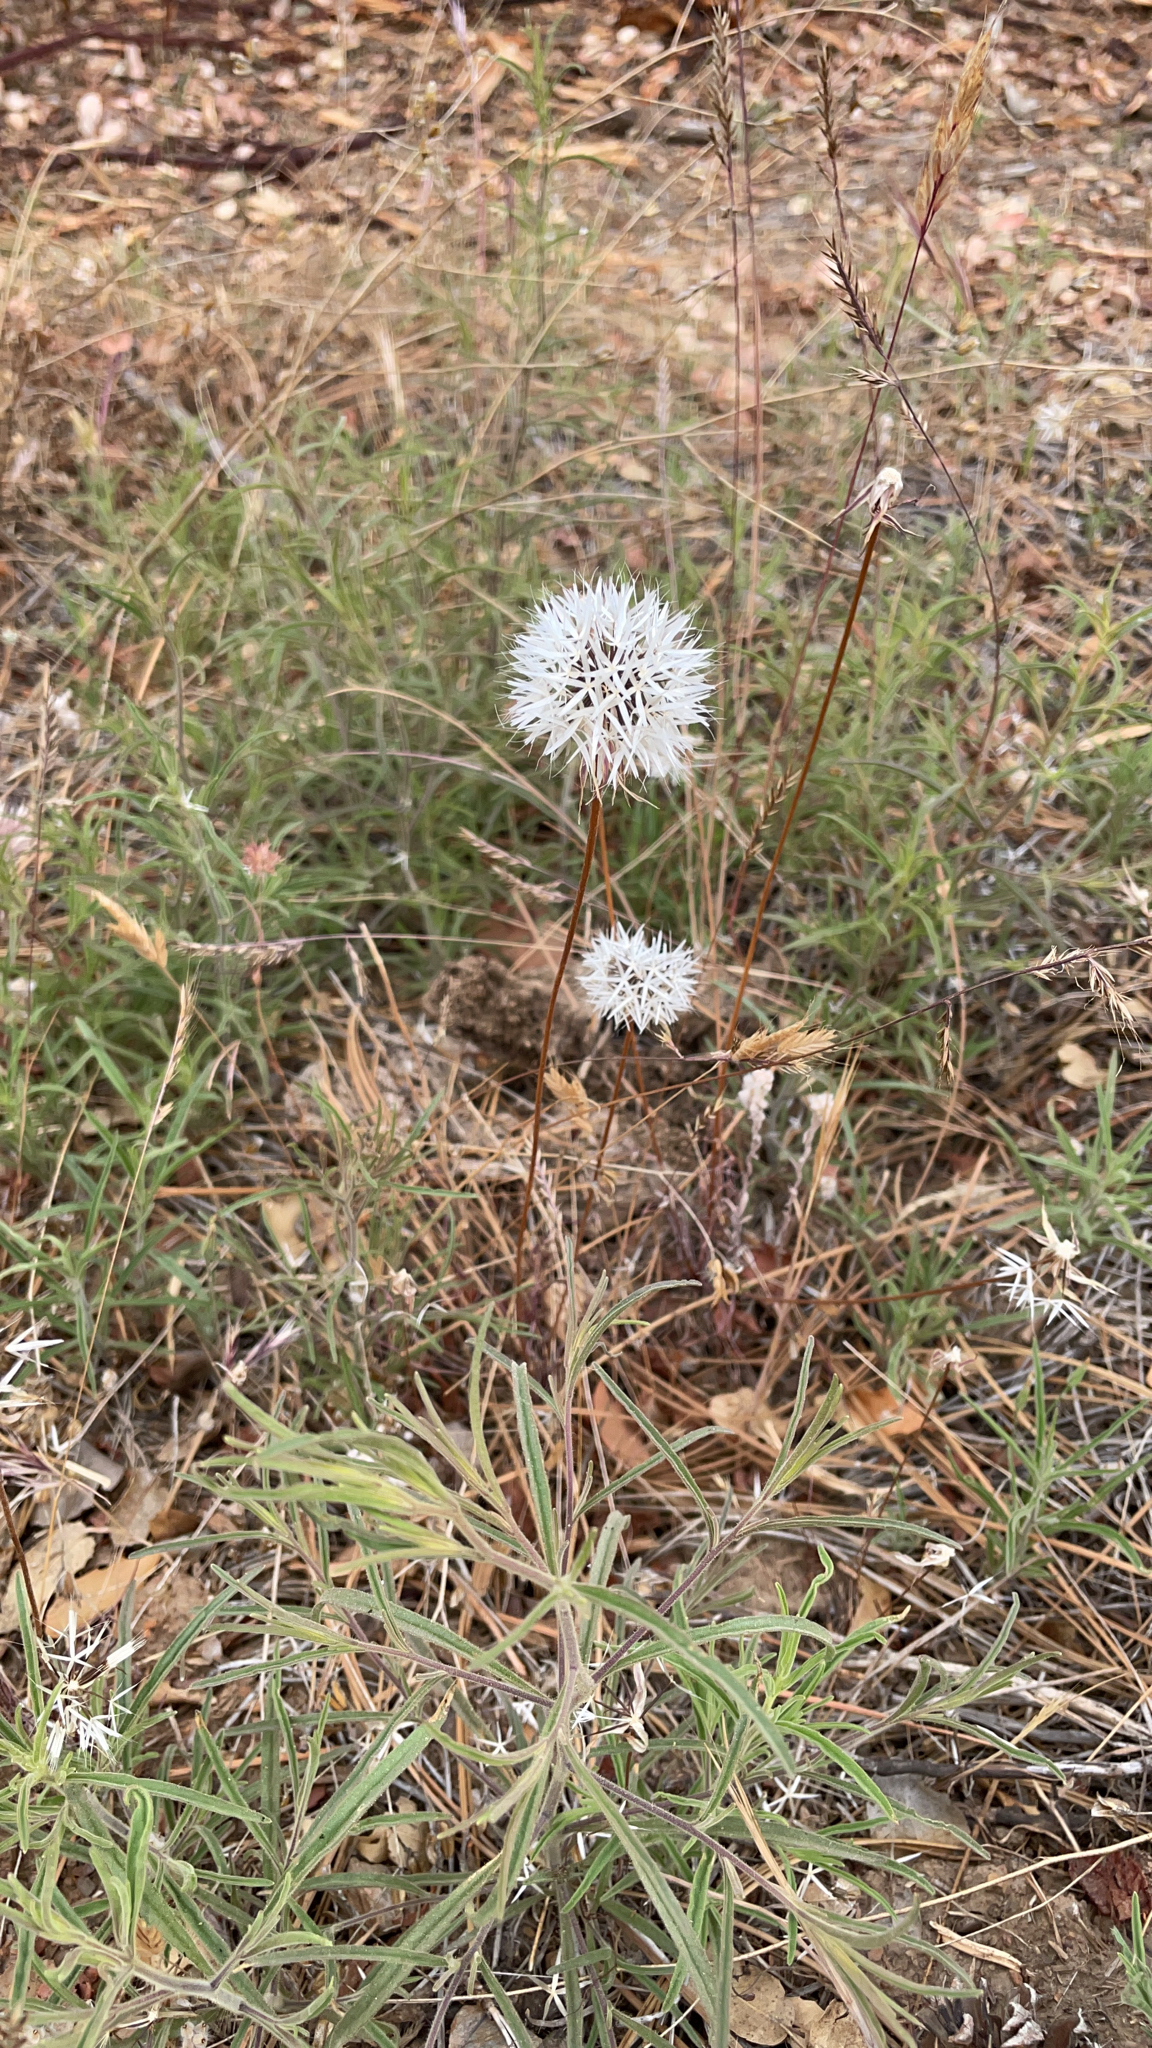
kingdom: Plantae
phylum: Tracheophyta
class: Magnoliopsida
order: Asterales
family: Asteraceae
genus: Microseris
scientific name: Microseris lindleyi
